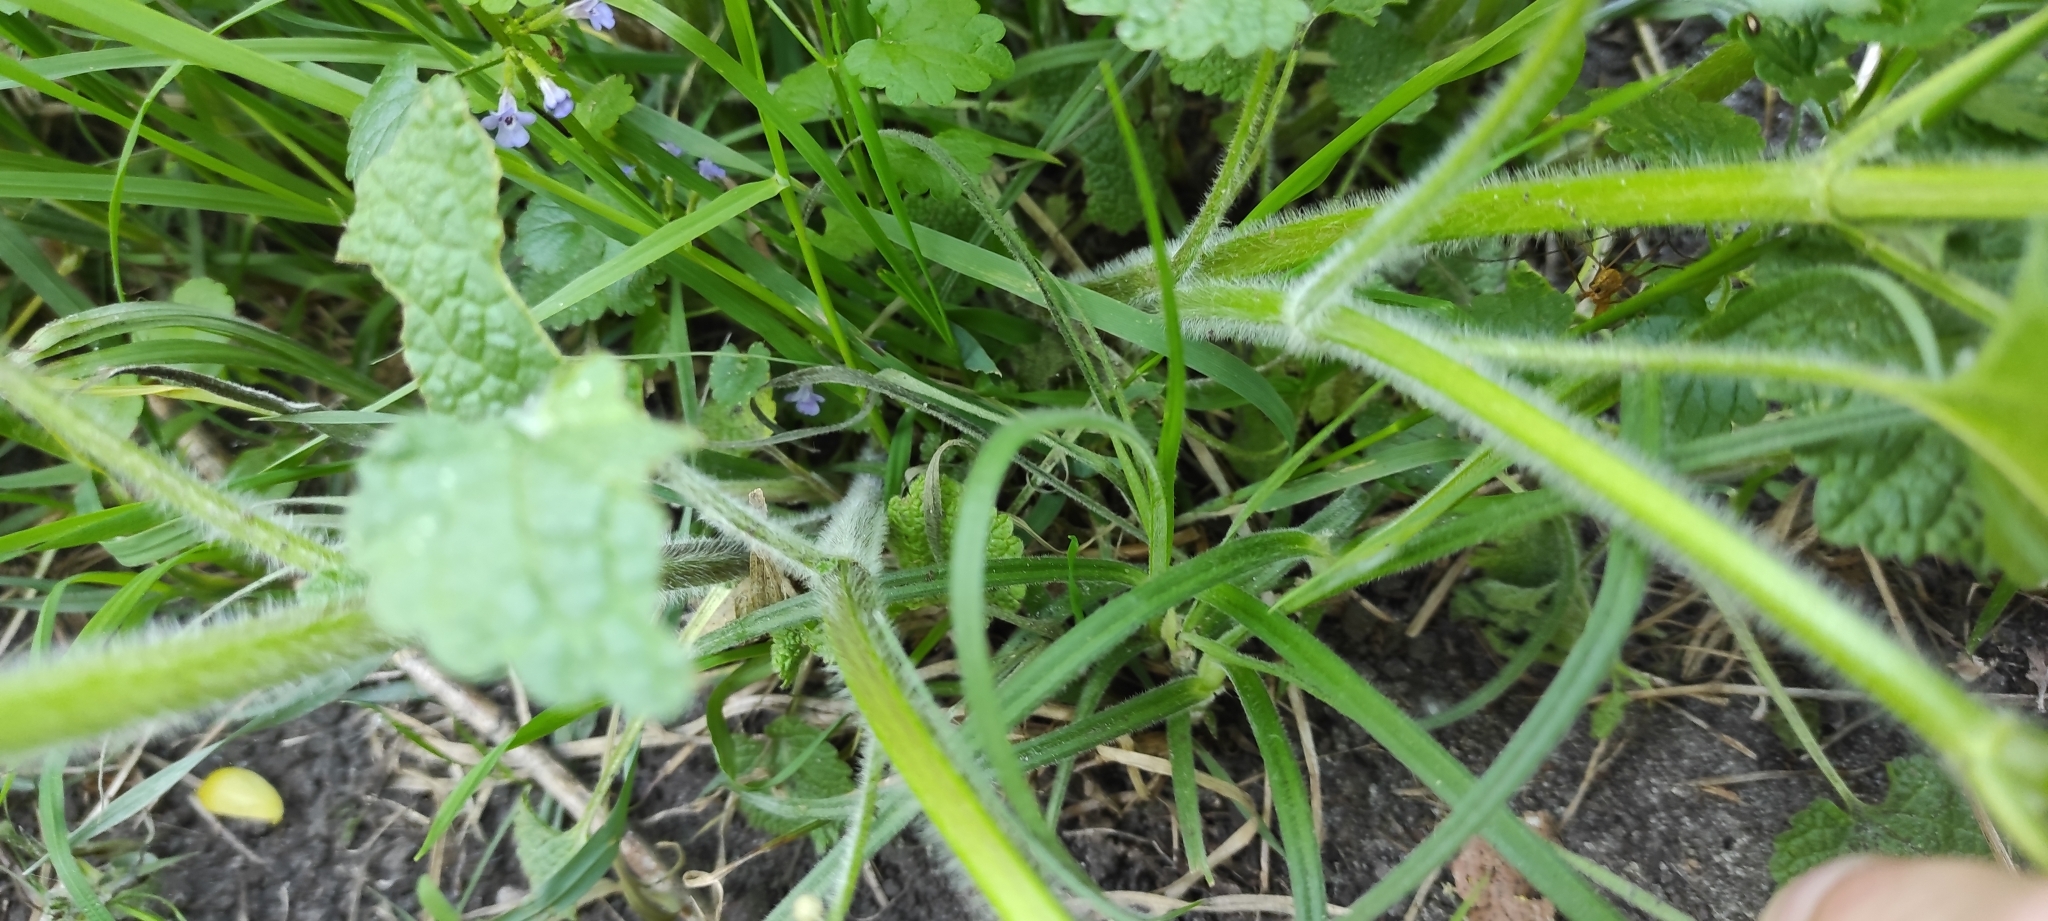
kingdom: Plantae
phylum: Tracheophyta
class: Magnoliopsida
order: Lamiales
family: Lamiaceae
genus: Ballota
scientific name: Ballota nigra
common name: Black horehound
